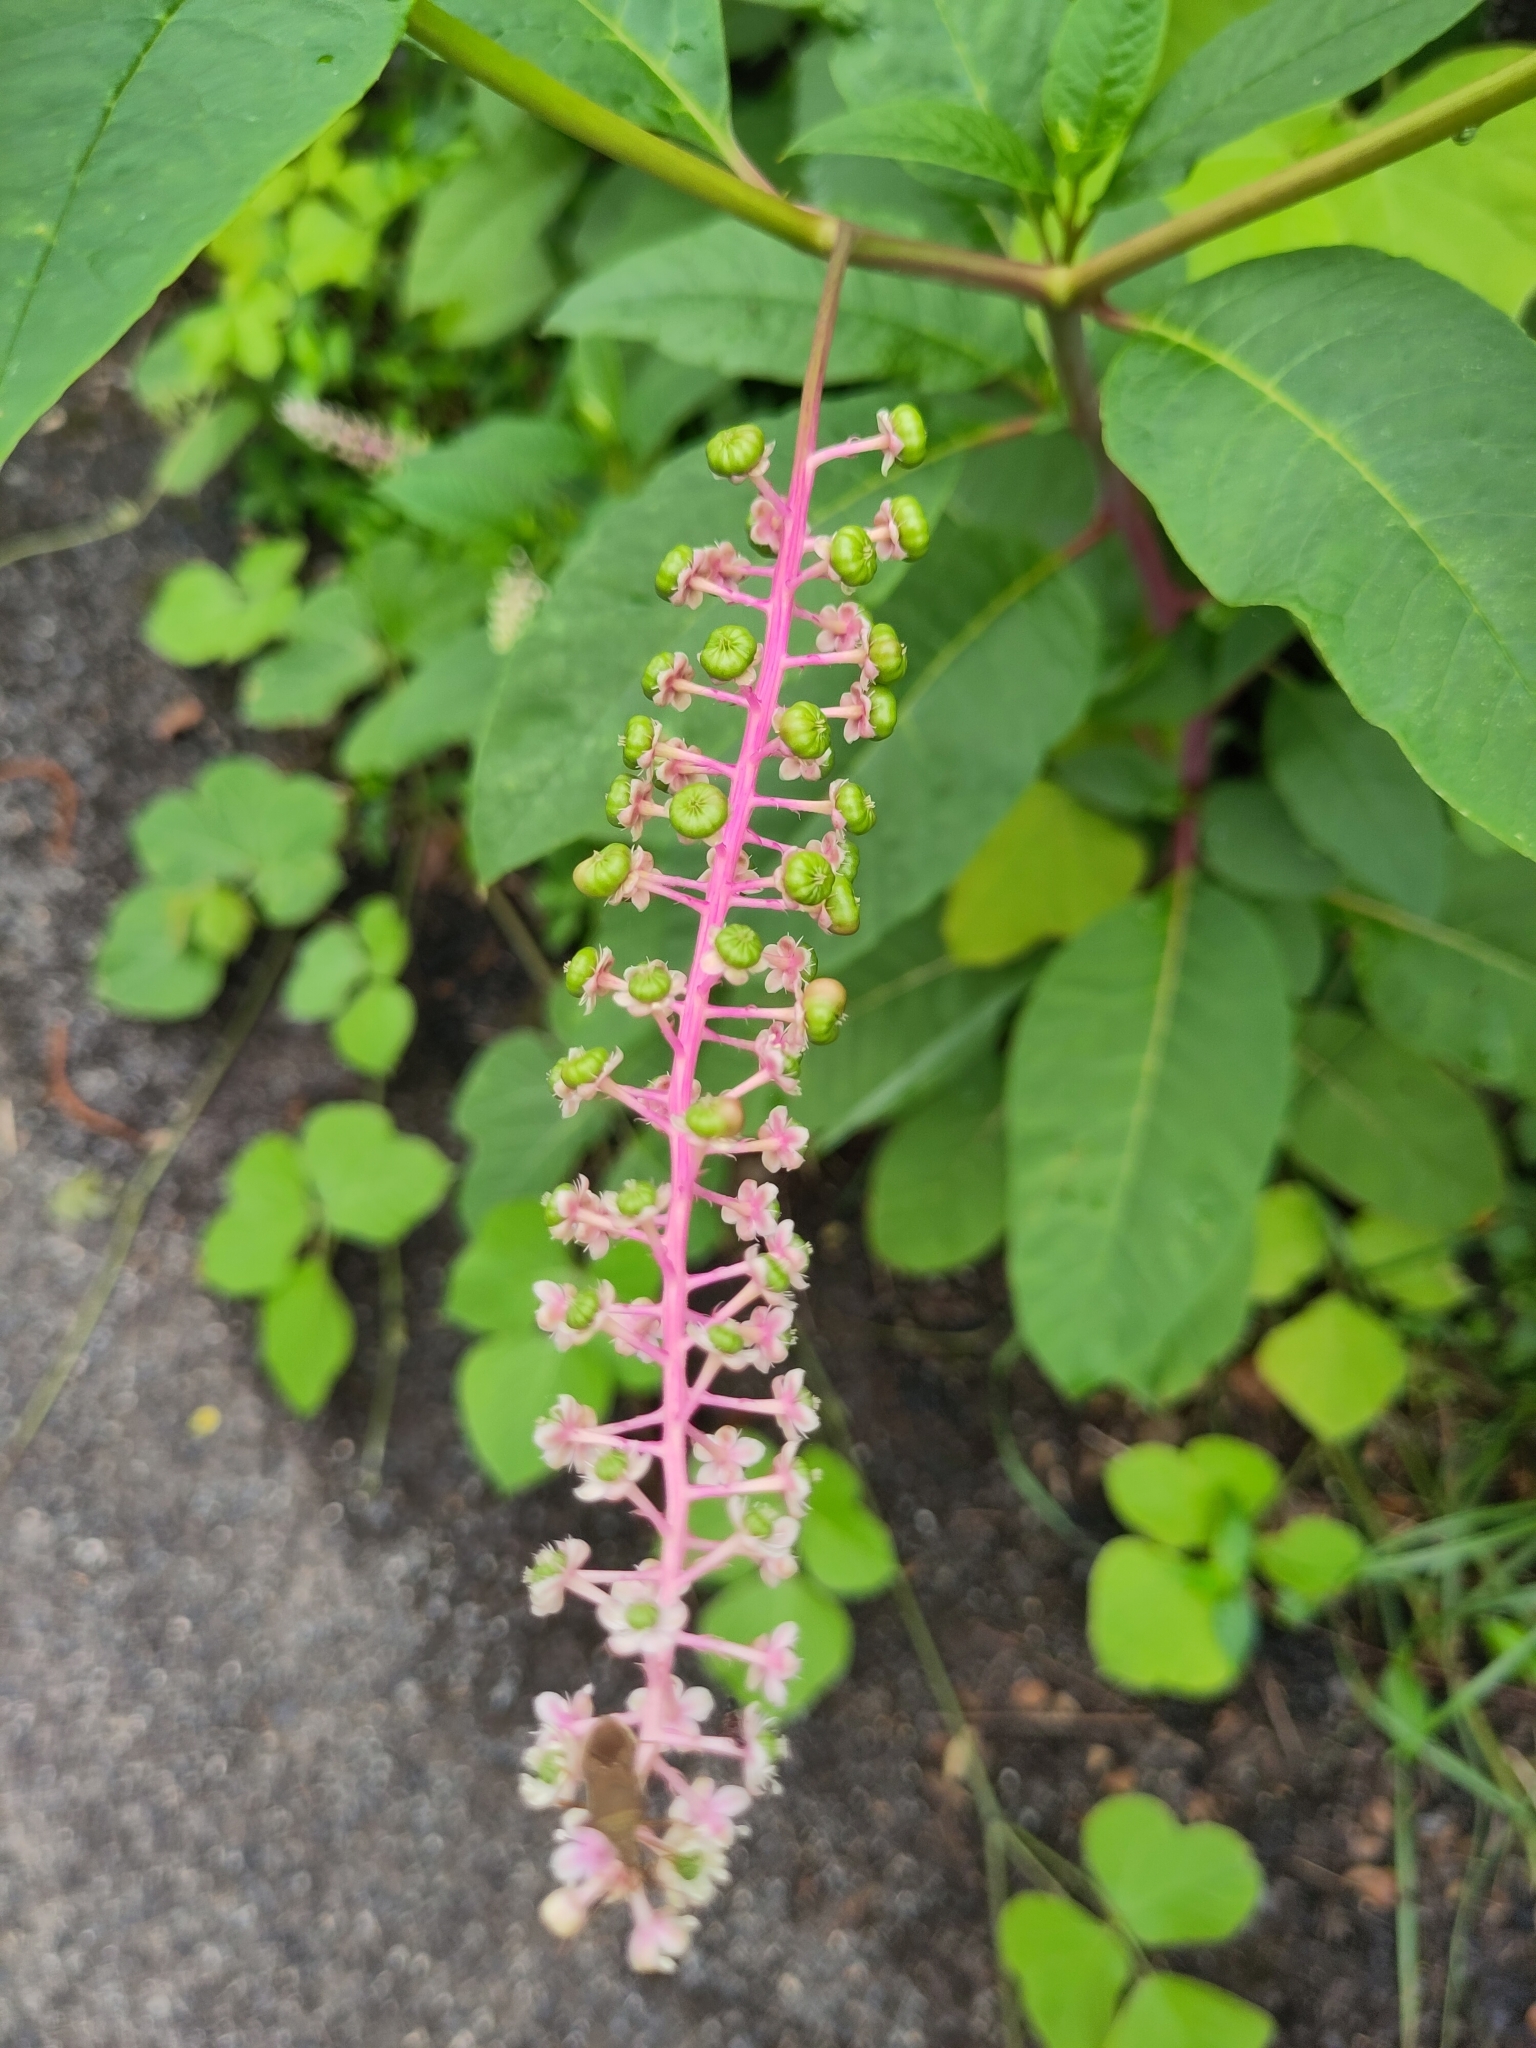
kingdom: Plantae
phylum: Tracheophyta
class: Magnoliopsida
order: Caryophyllales
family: Phytolaccaceae
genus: Phytolacca
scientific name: Phytolacca americana
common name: American pokeweed
